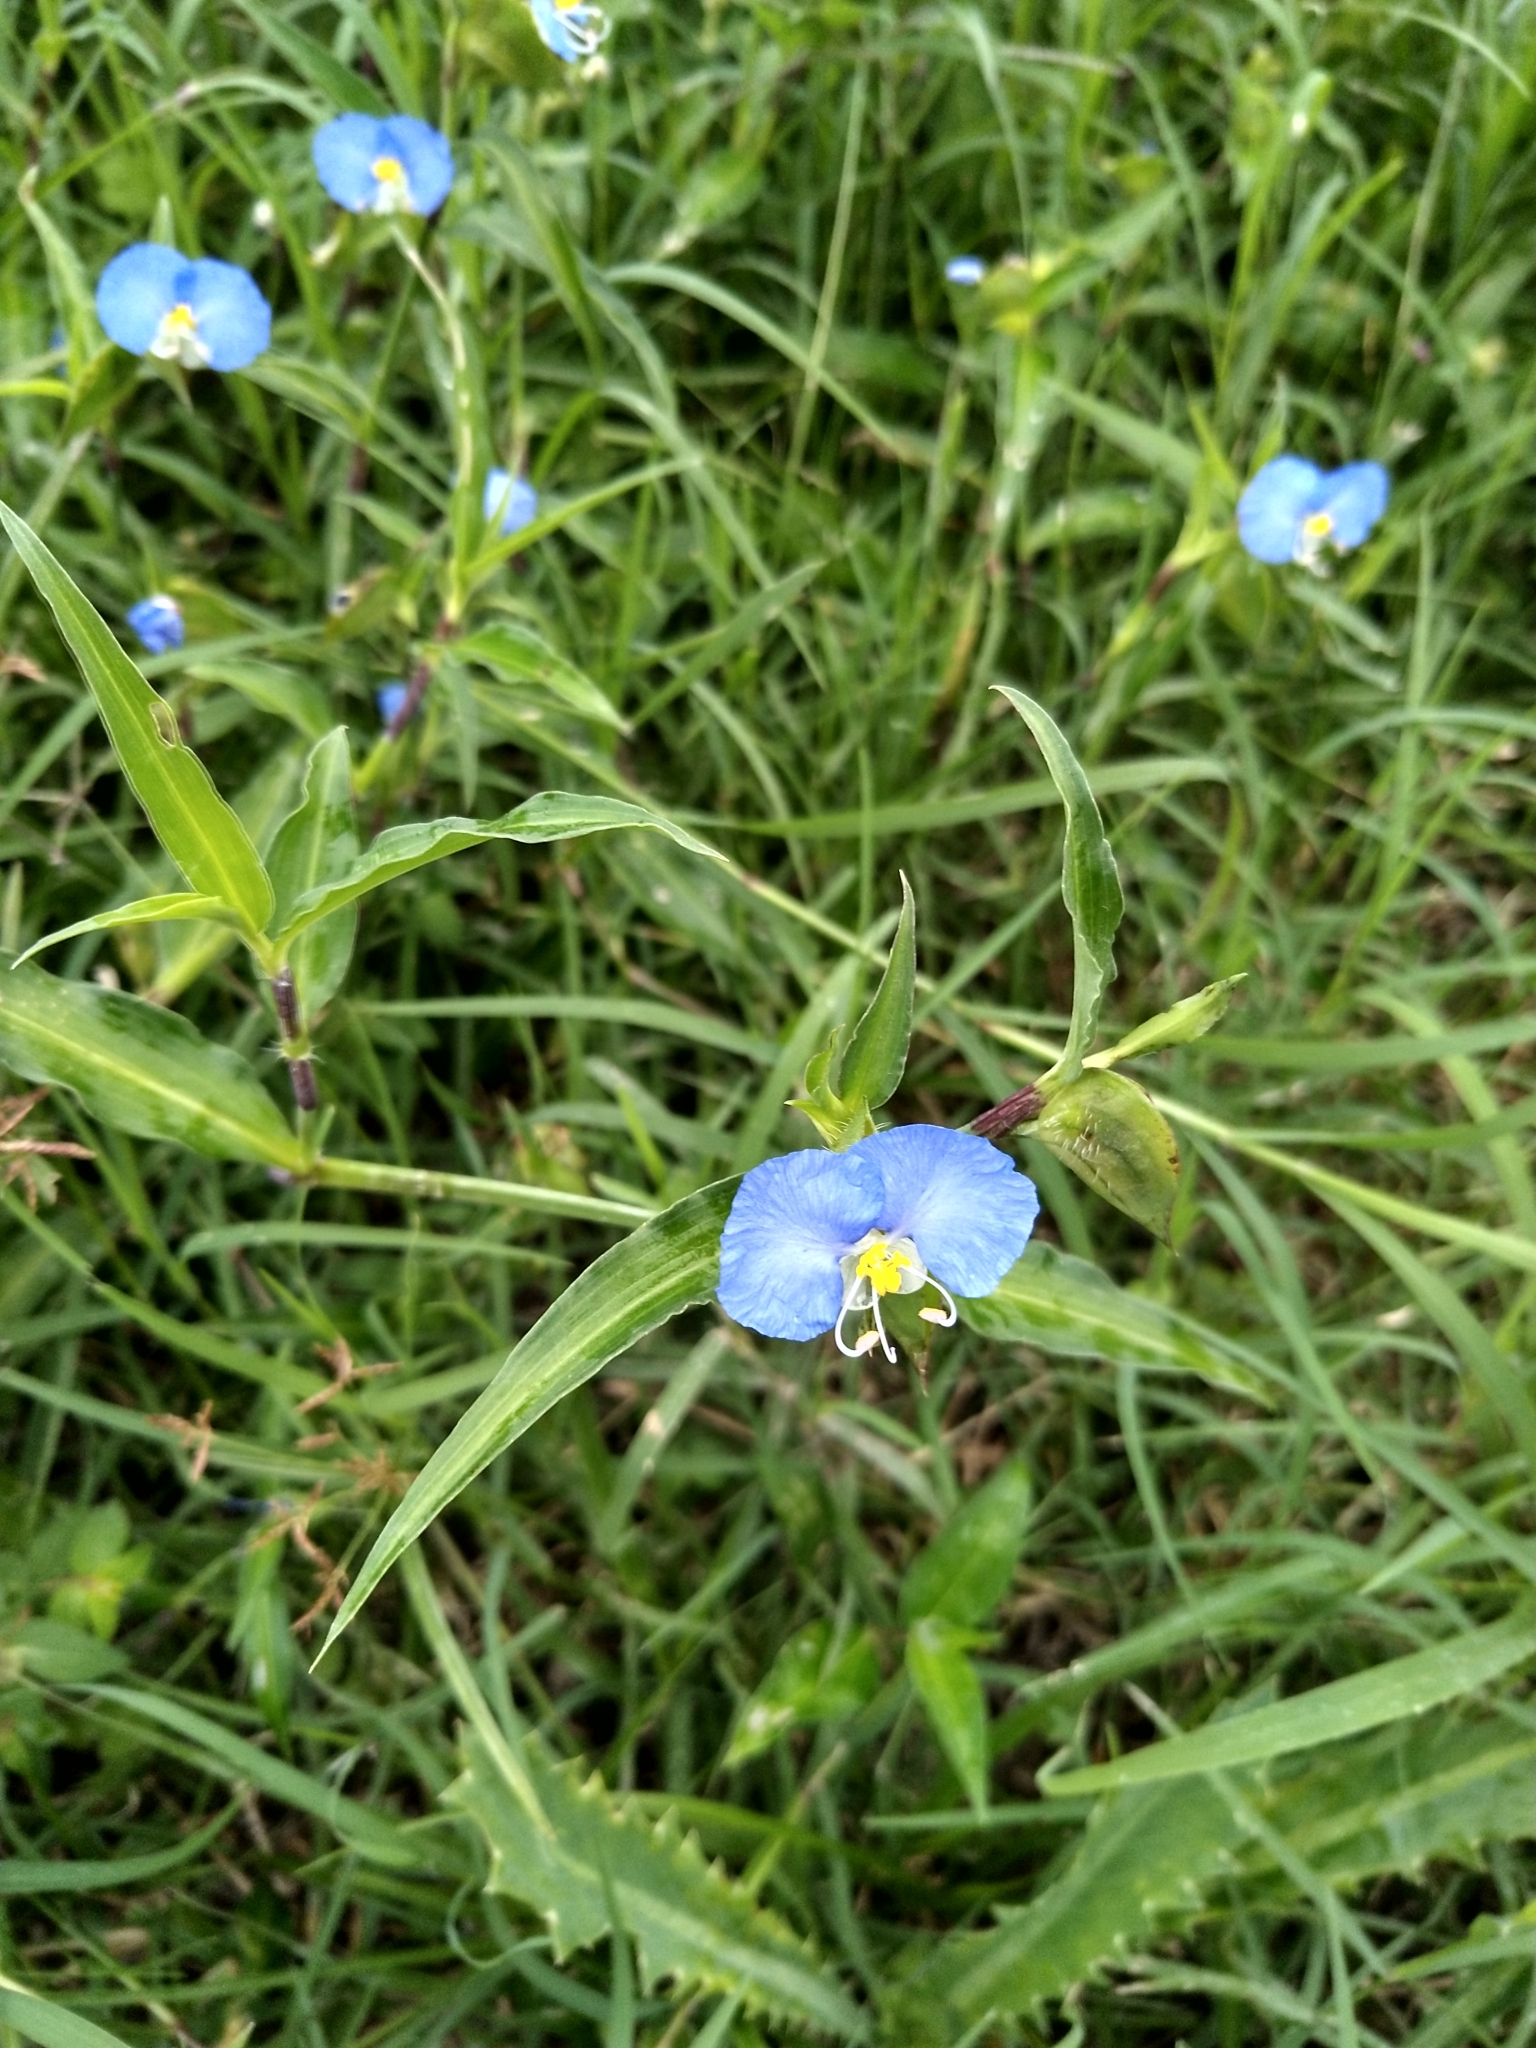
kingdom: Plantae
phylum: Tracheophyta
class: Liliopsida
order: Commelinales
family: Commelinaceae
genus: Commelina
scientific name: Commelina erecta
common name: Blousel blommetjie
